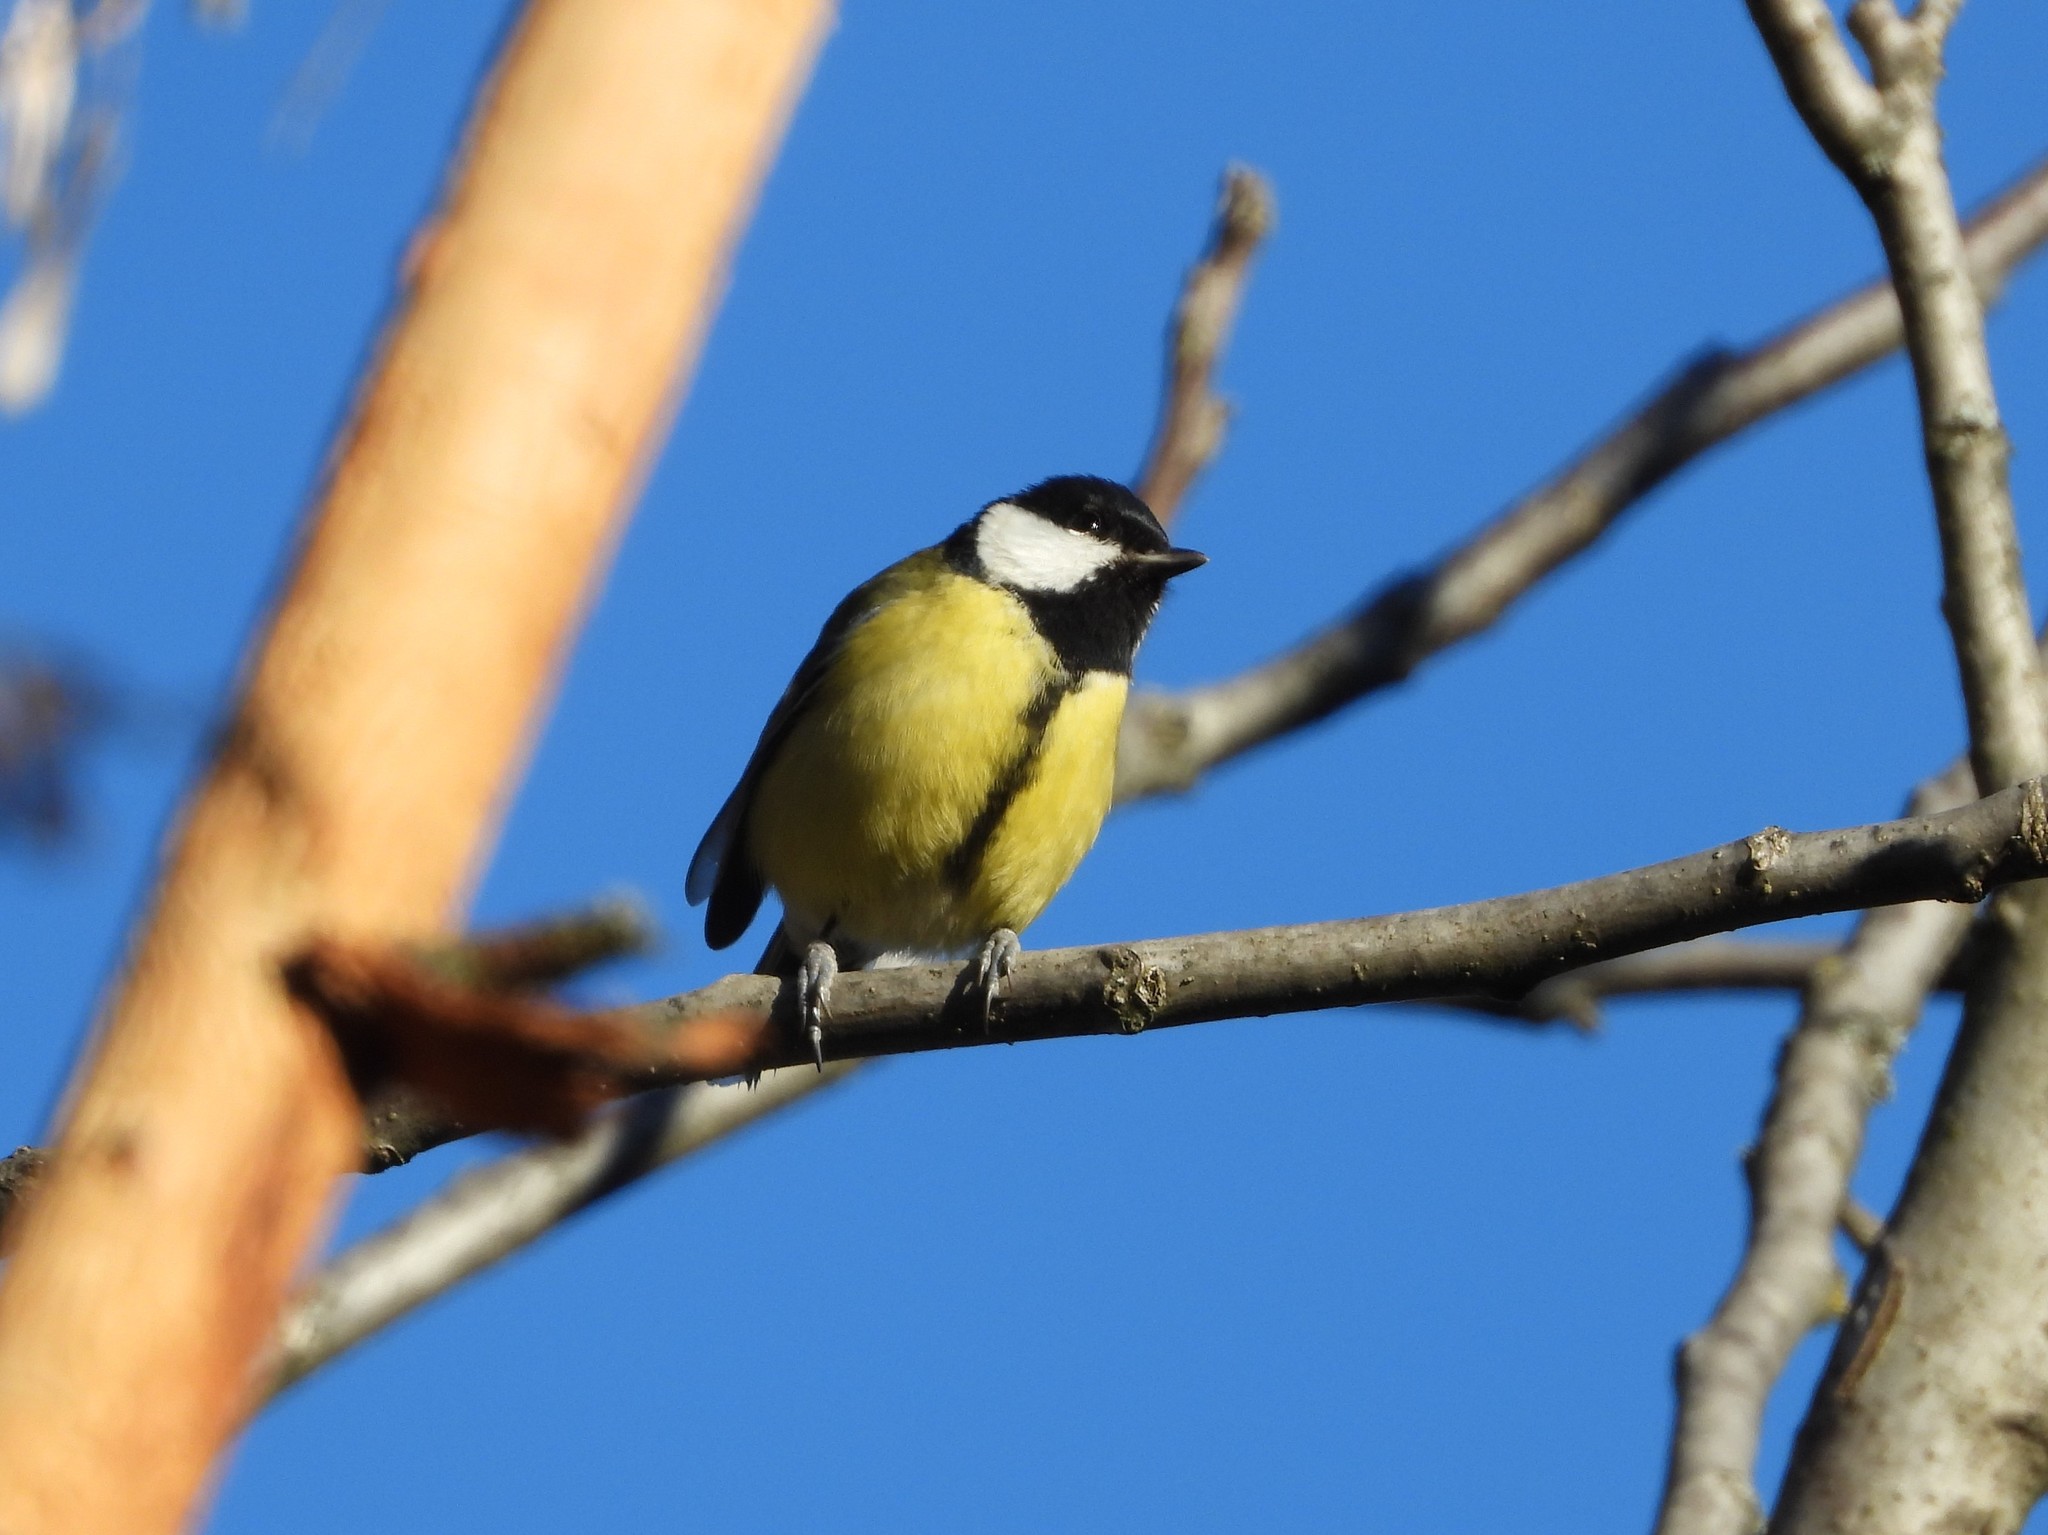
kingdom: Animalia
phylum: Chordata
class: Aves
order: Passeriformes
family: Paridae
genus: Parus
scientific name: Parus major
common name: Great tit
